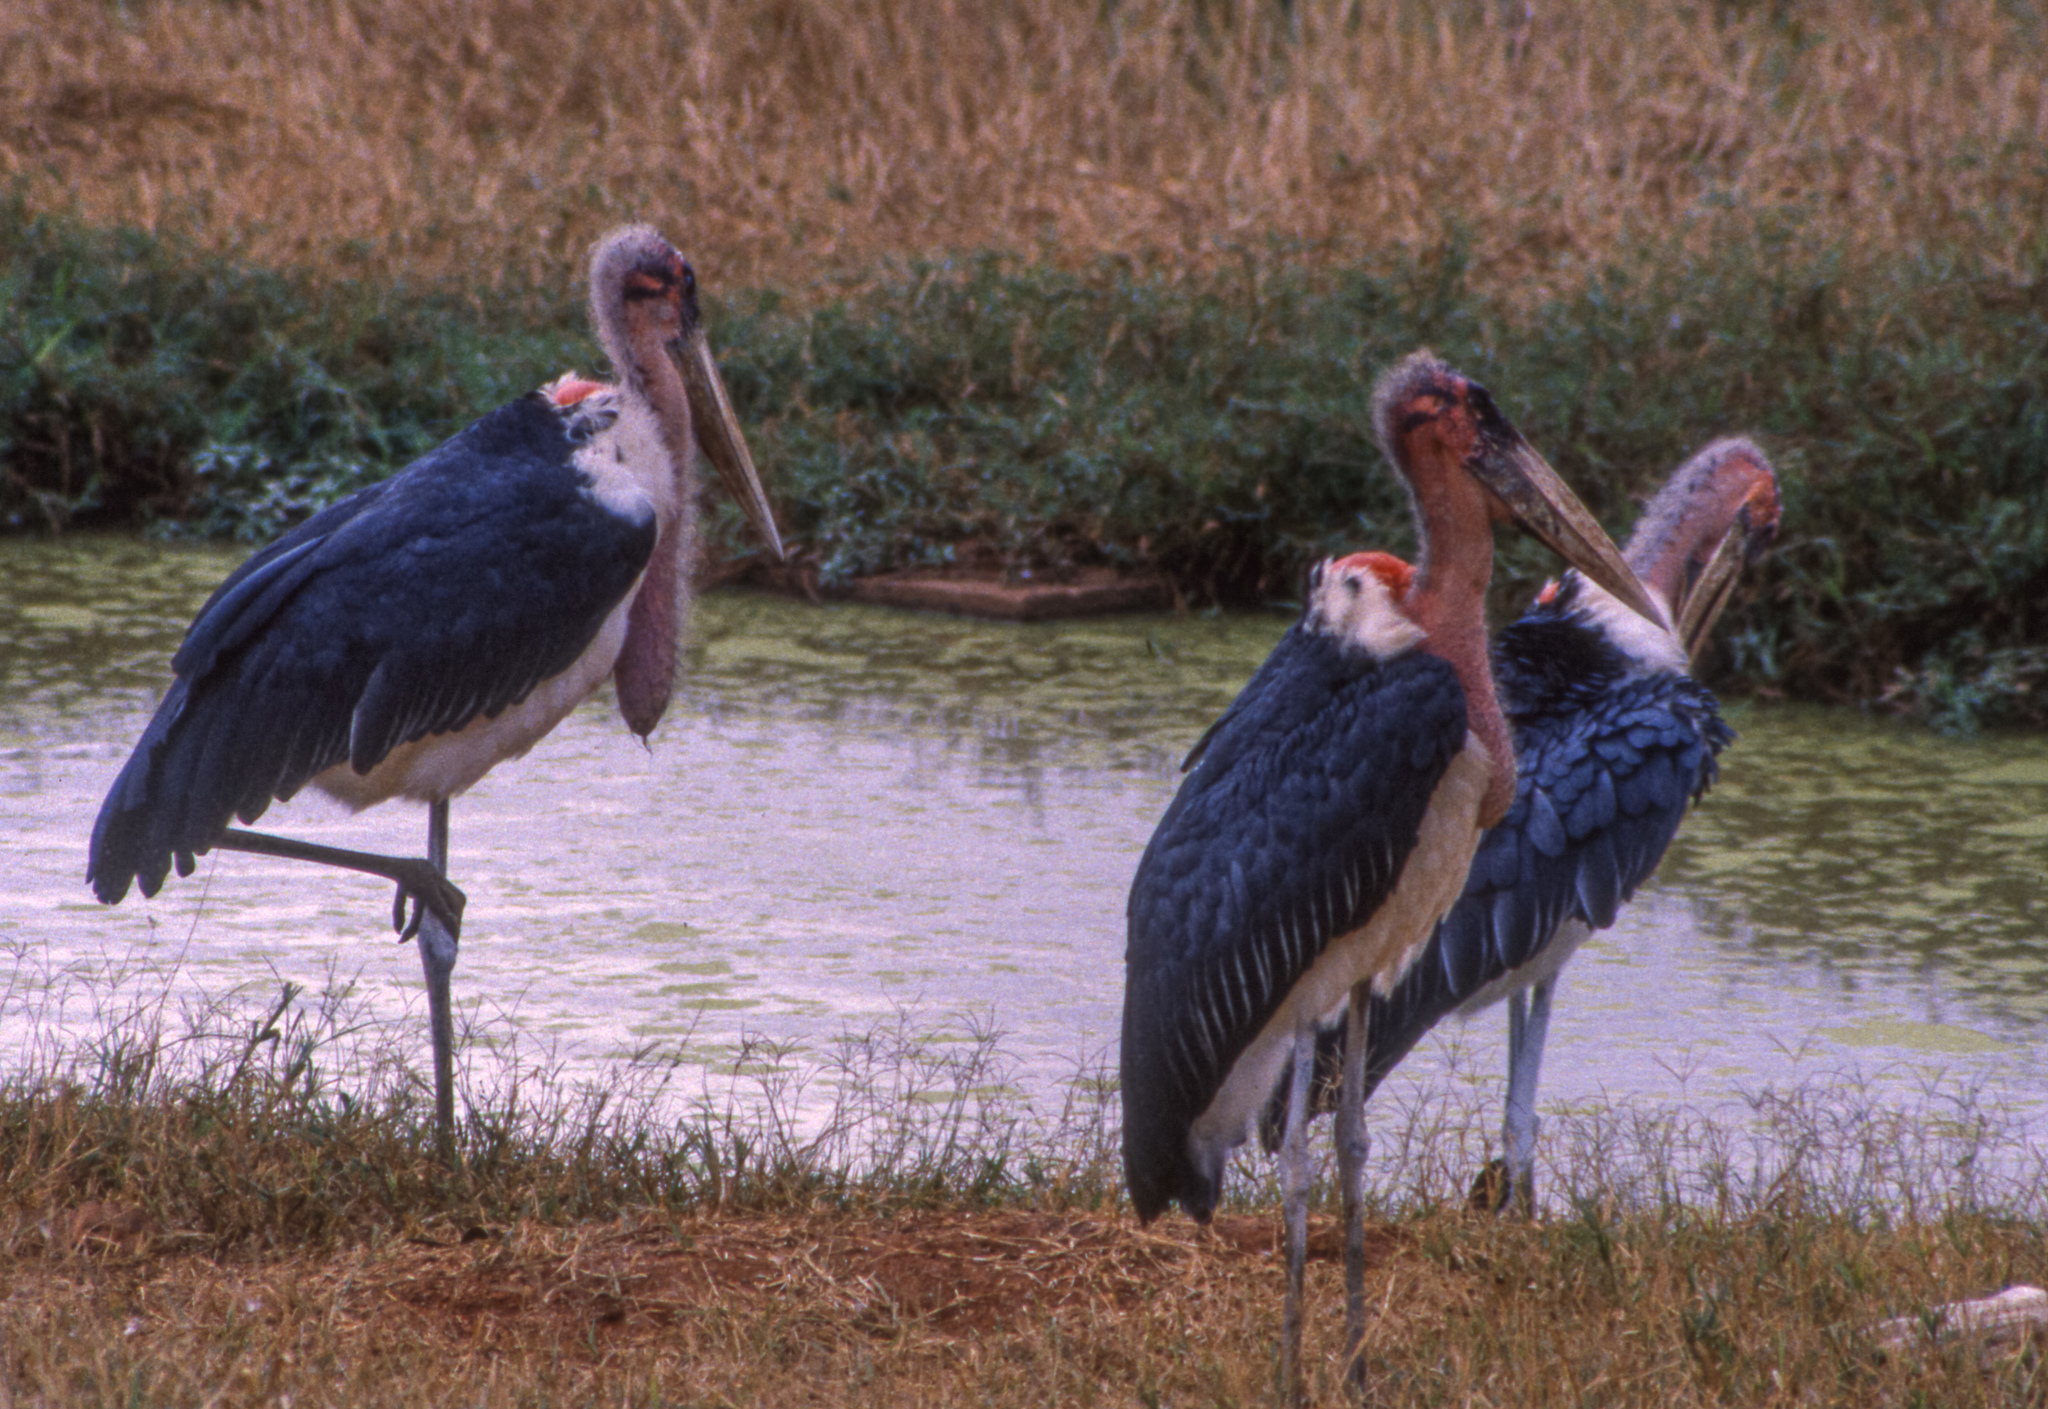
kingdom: Animalia
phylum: Chordata
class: Aves
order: Ciconiiformes
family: Ciconiidae
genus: Leptoptilos
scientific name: Leptoptilos crumenifer
